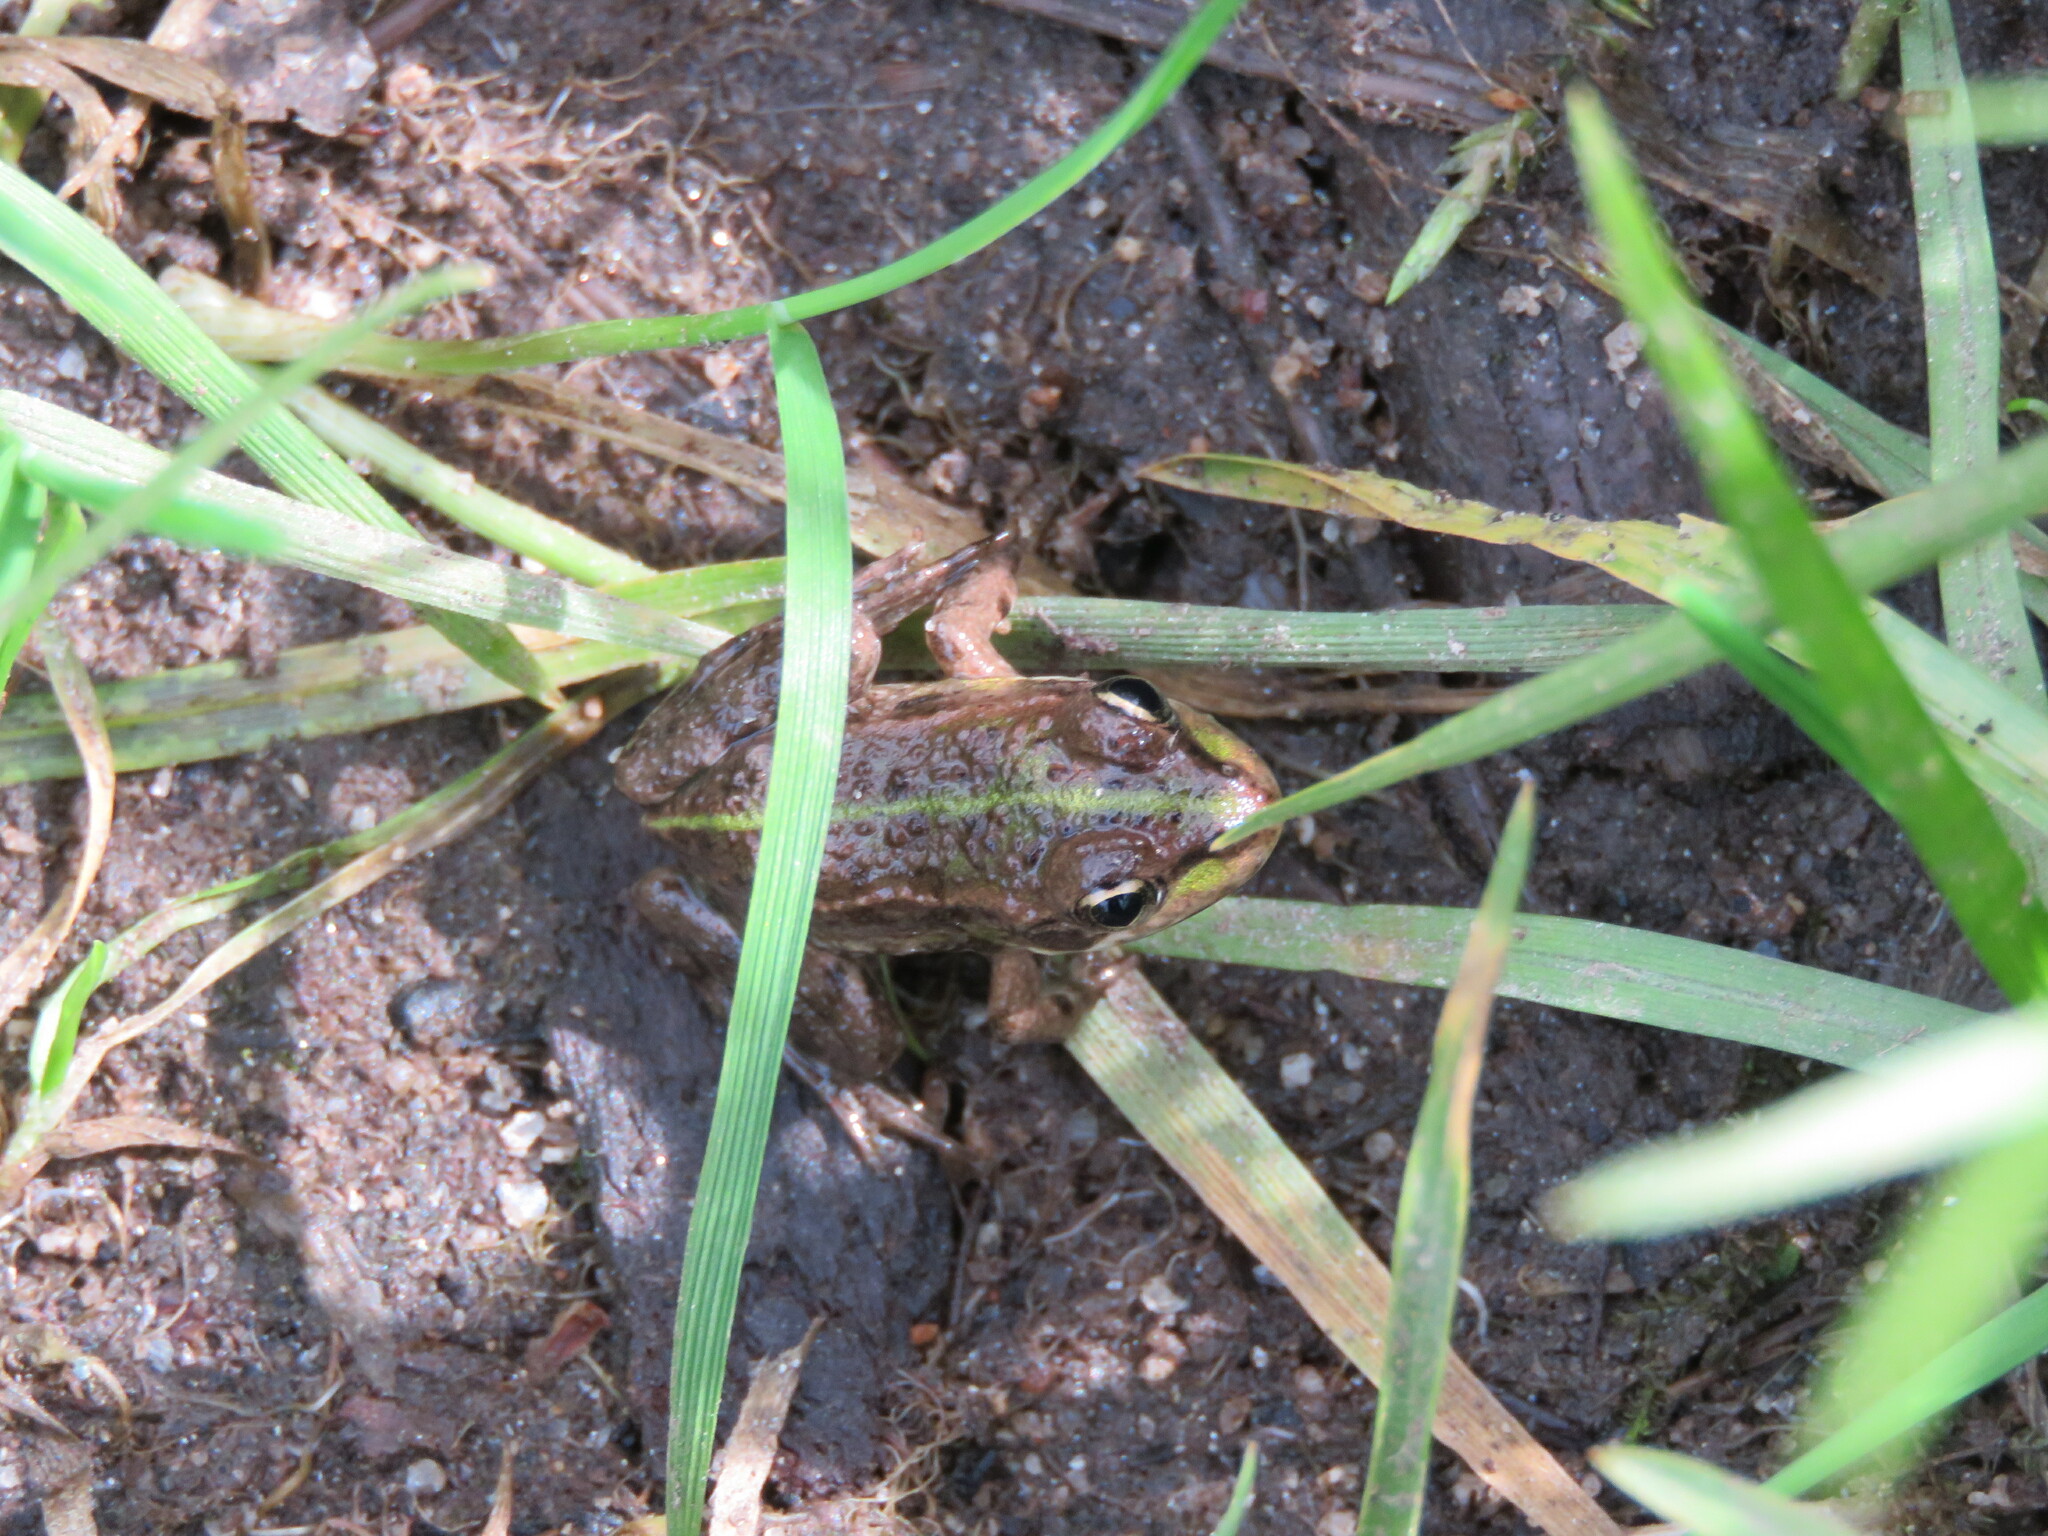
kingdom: Animalia
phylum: Chordata
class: Amphibia
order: Anura
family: Ranidae
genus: Pelophylax
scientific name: Pelophylax perezi
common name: Perez's frog
